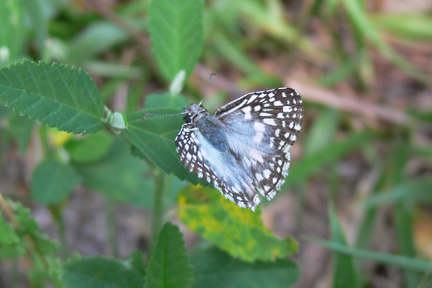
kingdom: Animalia
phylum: Arthropoda
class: Insecta
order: Lepidoptera
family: Hesperiidae
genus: Pyrgus
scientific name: Pyrgus oileus
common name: Tropical checkered-skipper
